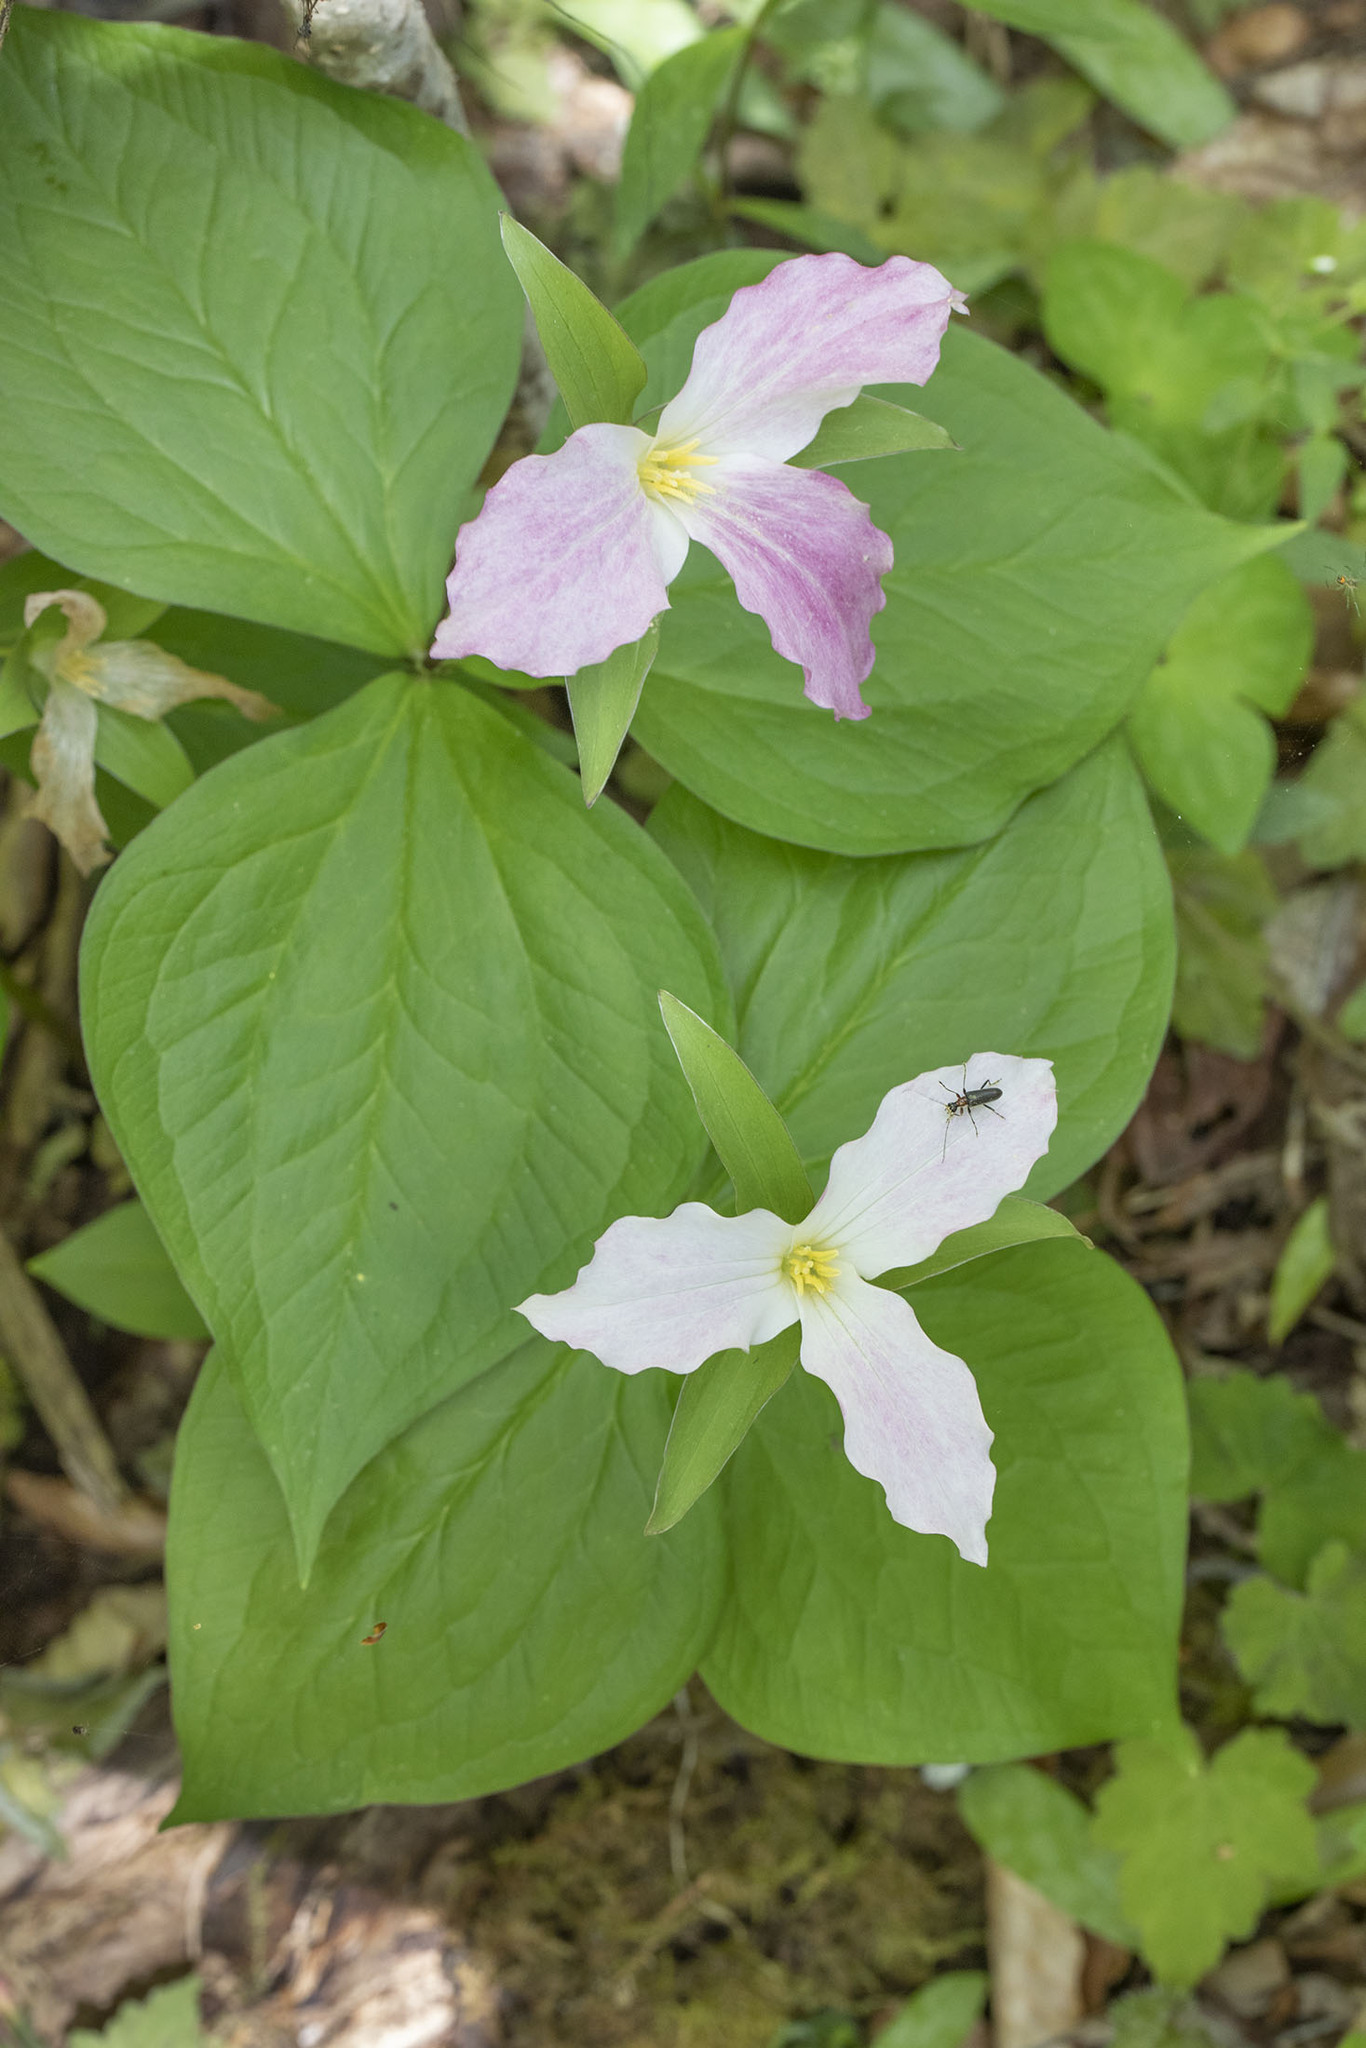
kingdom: Plantae
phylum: Tracheophyta
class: Liliopsida
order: Liliales
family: Melanthiaceae
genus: Trillium
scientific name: Trillium grandiflorum
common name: Great white trillium
